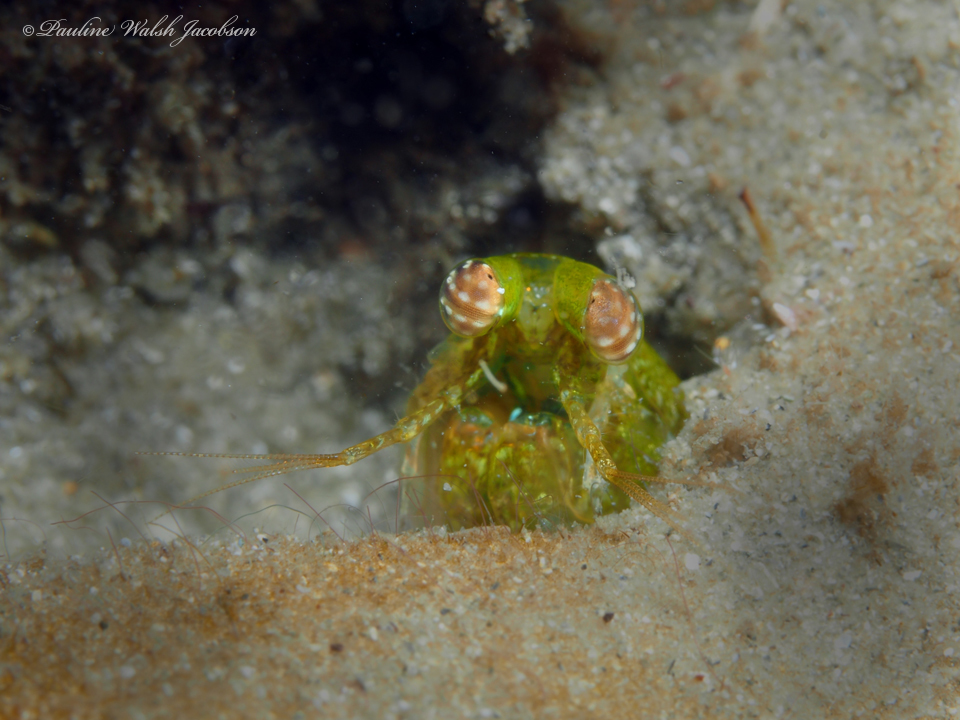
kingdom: Animalia
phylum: Arthropoda
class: Malacostraca
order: Stomatopoda
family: Pseudosquillidae
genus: Pseudosquilla
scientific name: Pseudosquilla ciliata
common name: Ciliated false squilla
